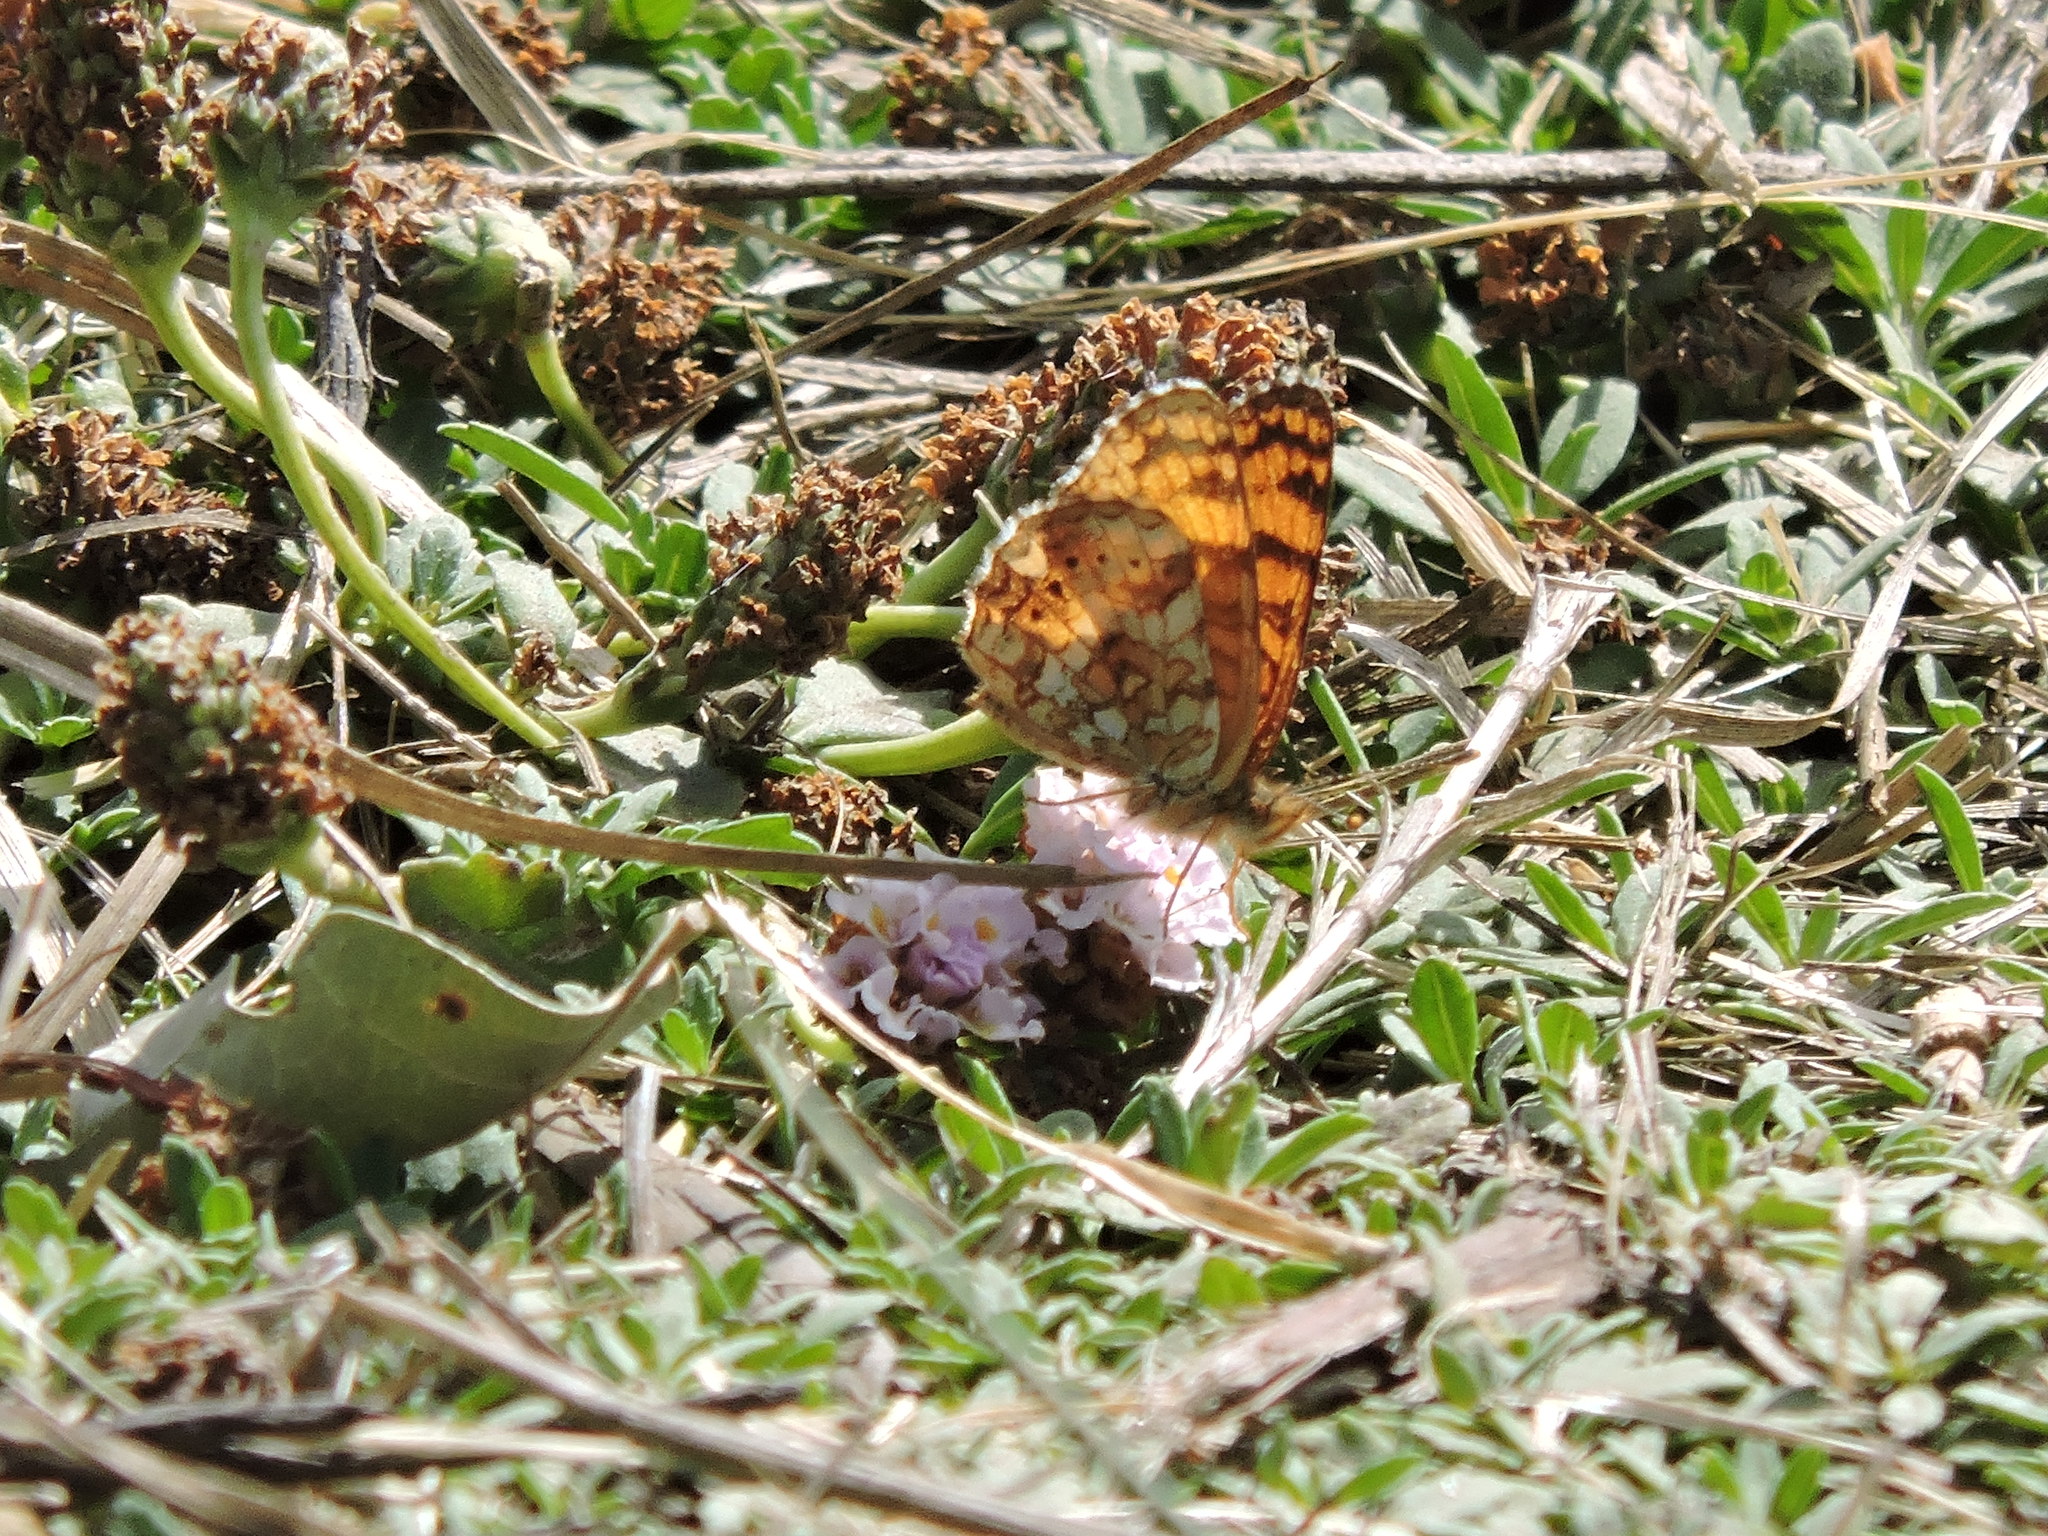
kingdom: Animalia
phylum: Arthropoda
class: Insecta
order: Lepidoptera
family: Nymphalidae
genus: Eresia
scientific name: Eresia aveyrona
